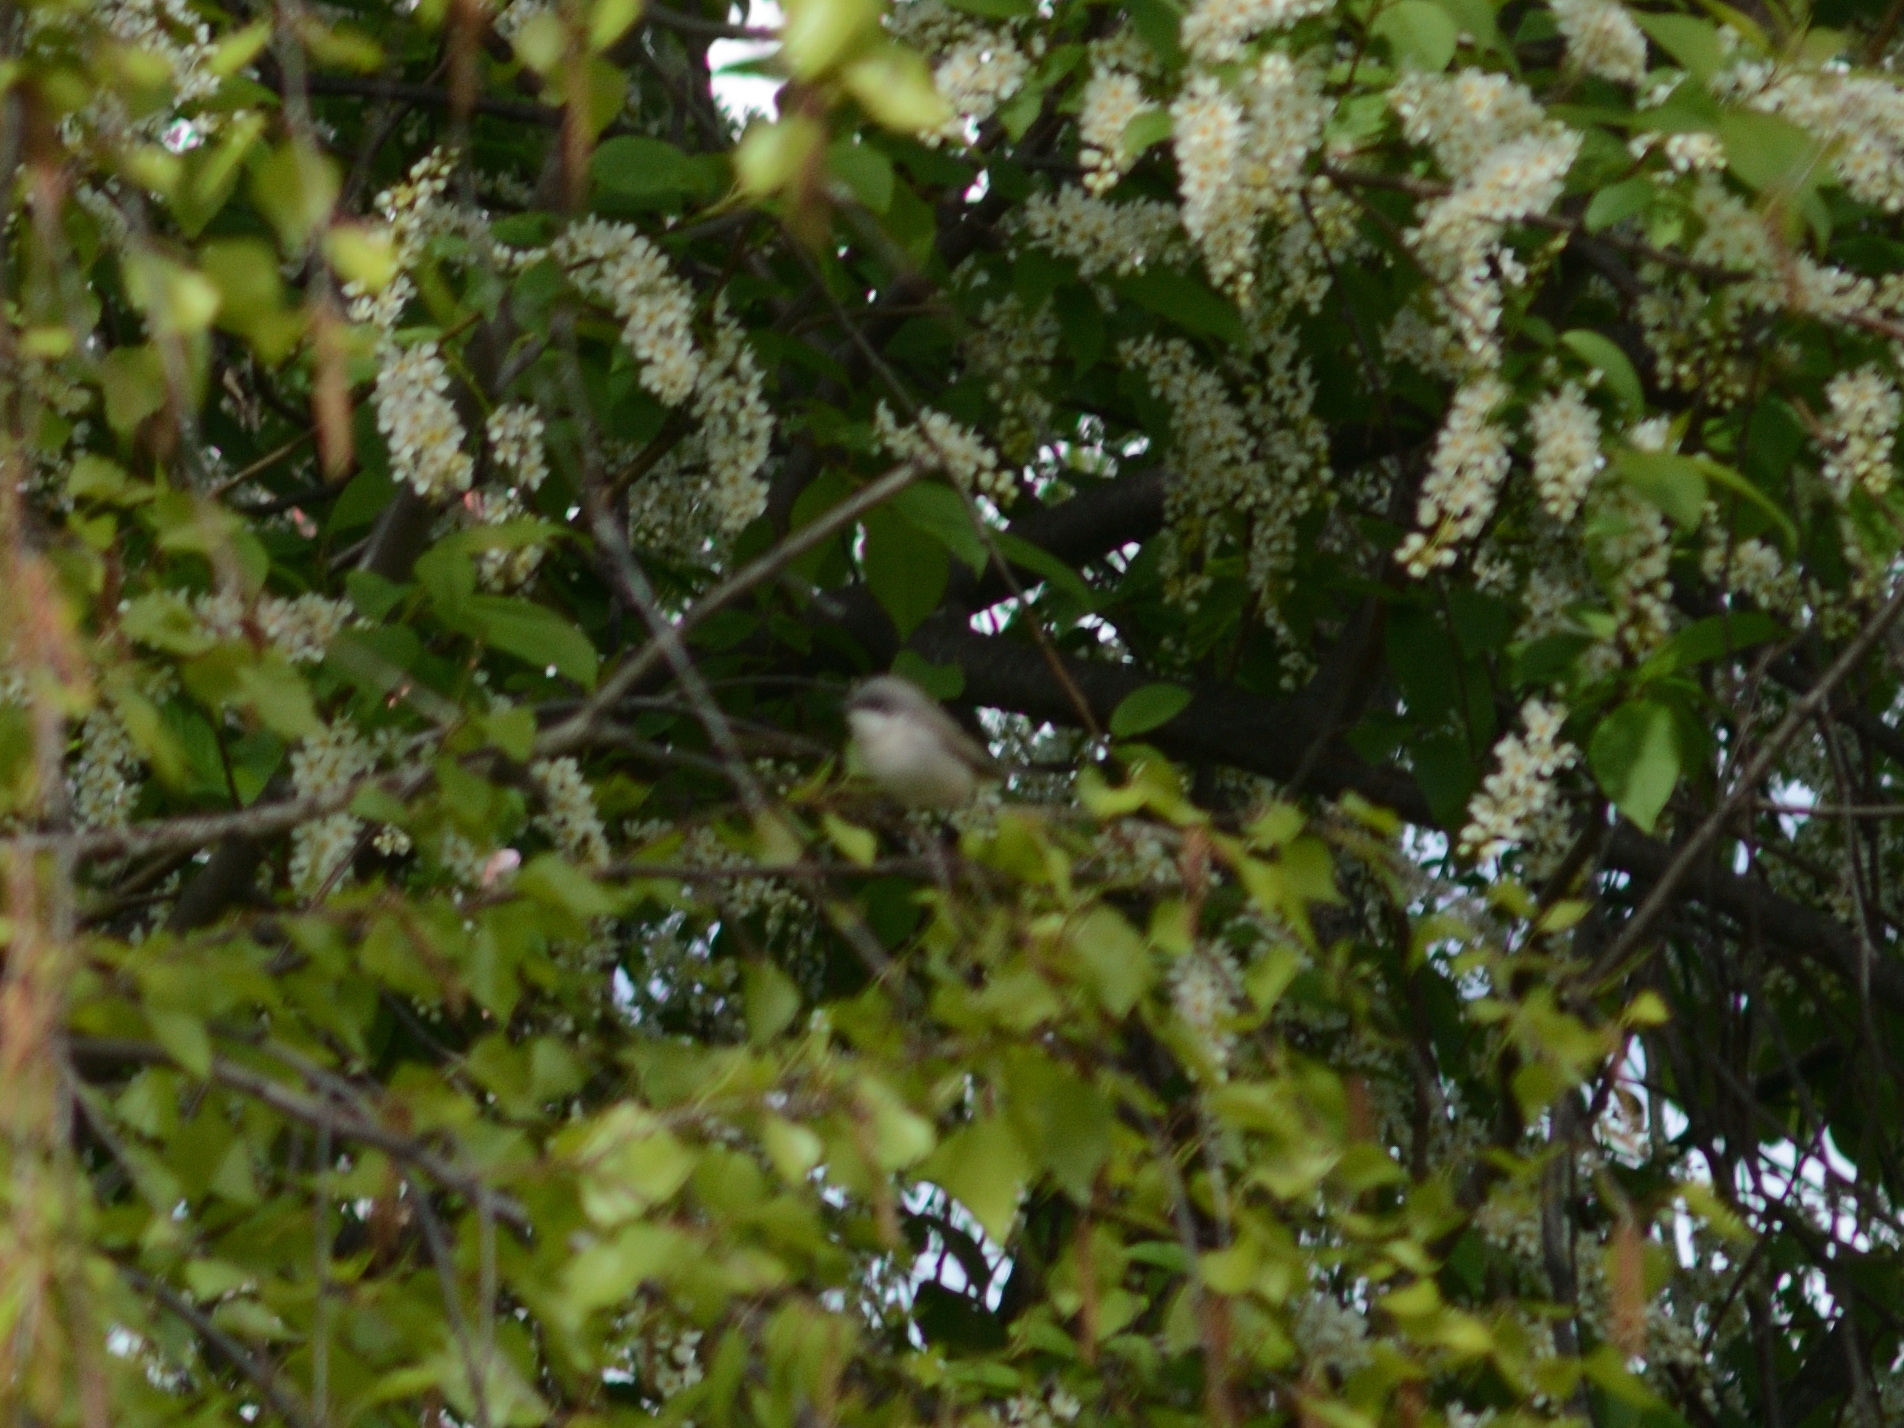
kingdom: Animalia
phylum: Chordata
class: Aves
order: Passeriformes
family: Sylviidae
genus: Sylvia
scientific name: Sylvia curruca
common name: Lesser whitethroat
